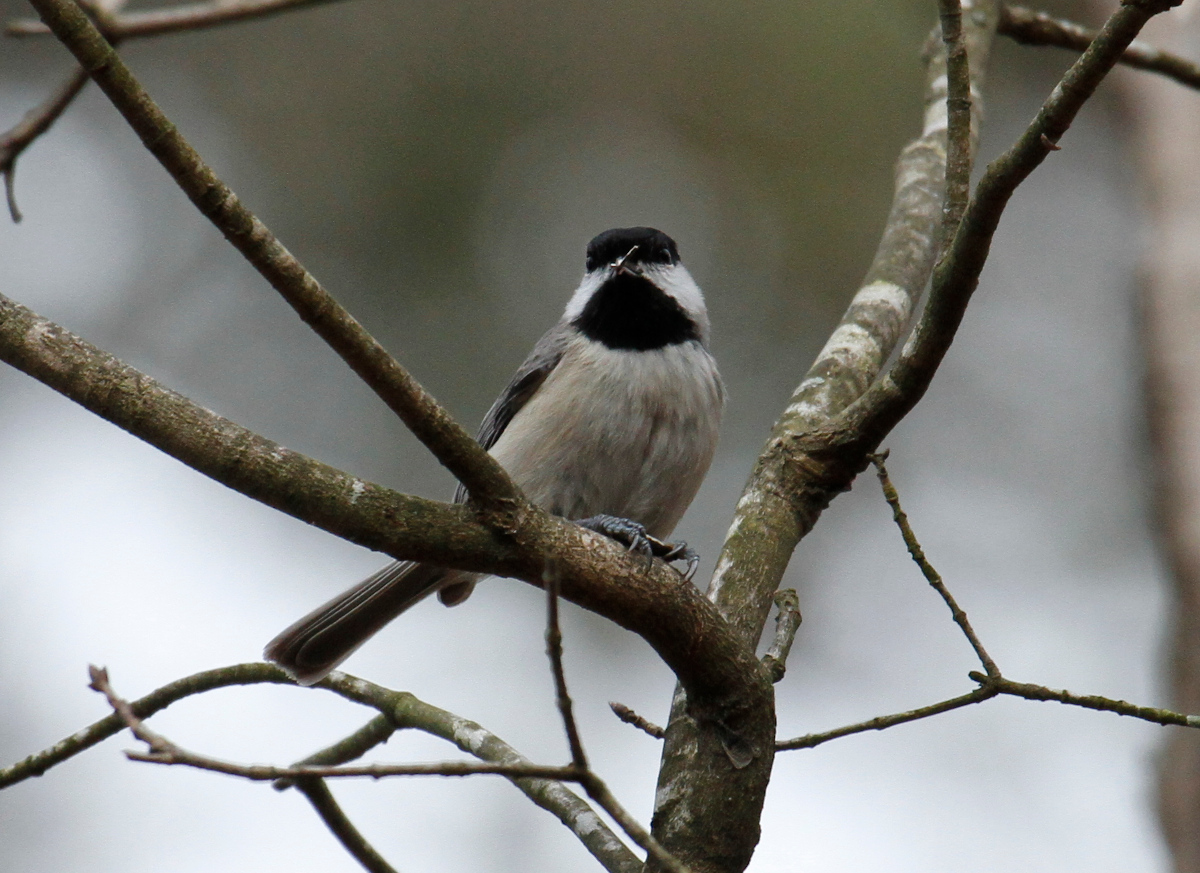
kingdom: Animalia
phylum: Chordata
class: Aves
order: Passeriformes
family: Paridae
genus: Poecile
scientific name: Poecile carolinensis
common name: Carolina chickadee
